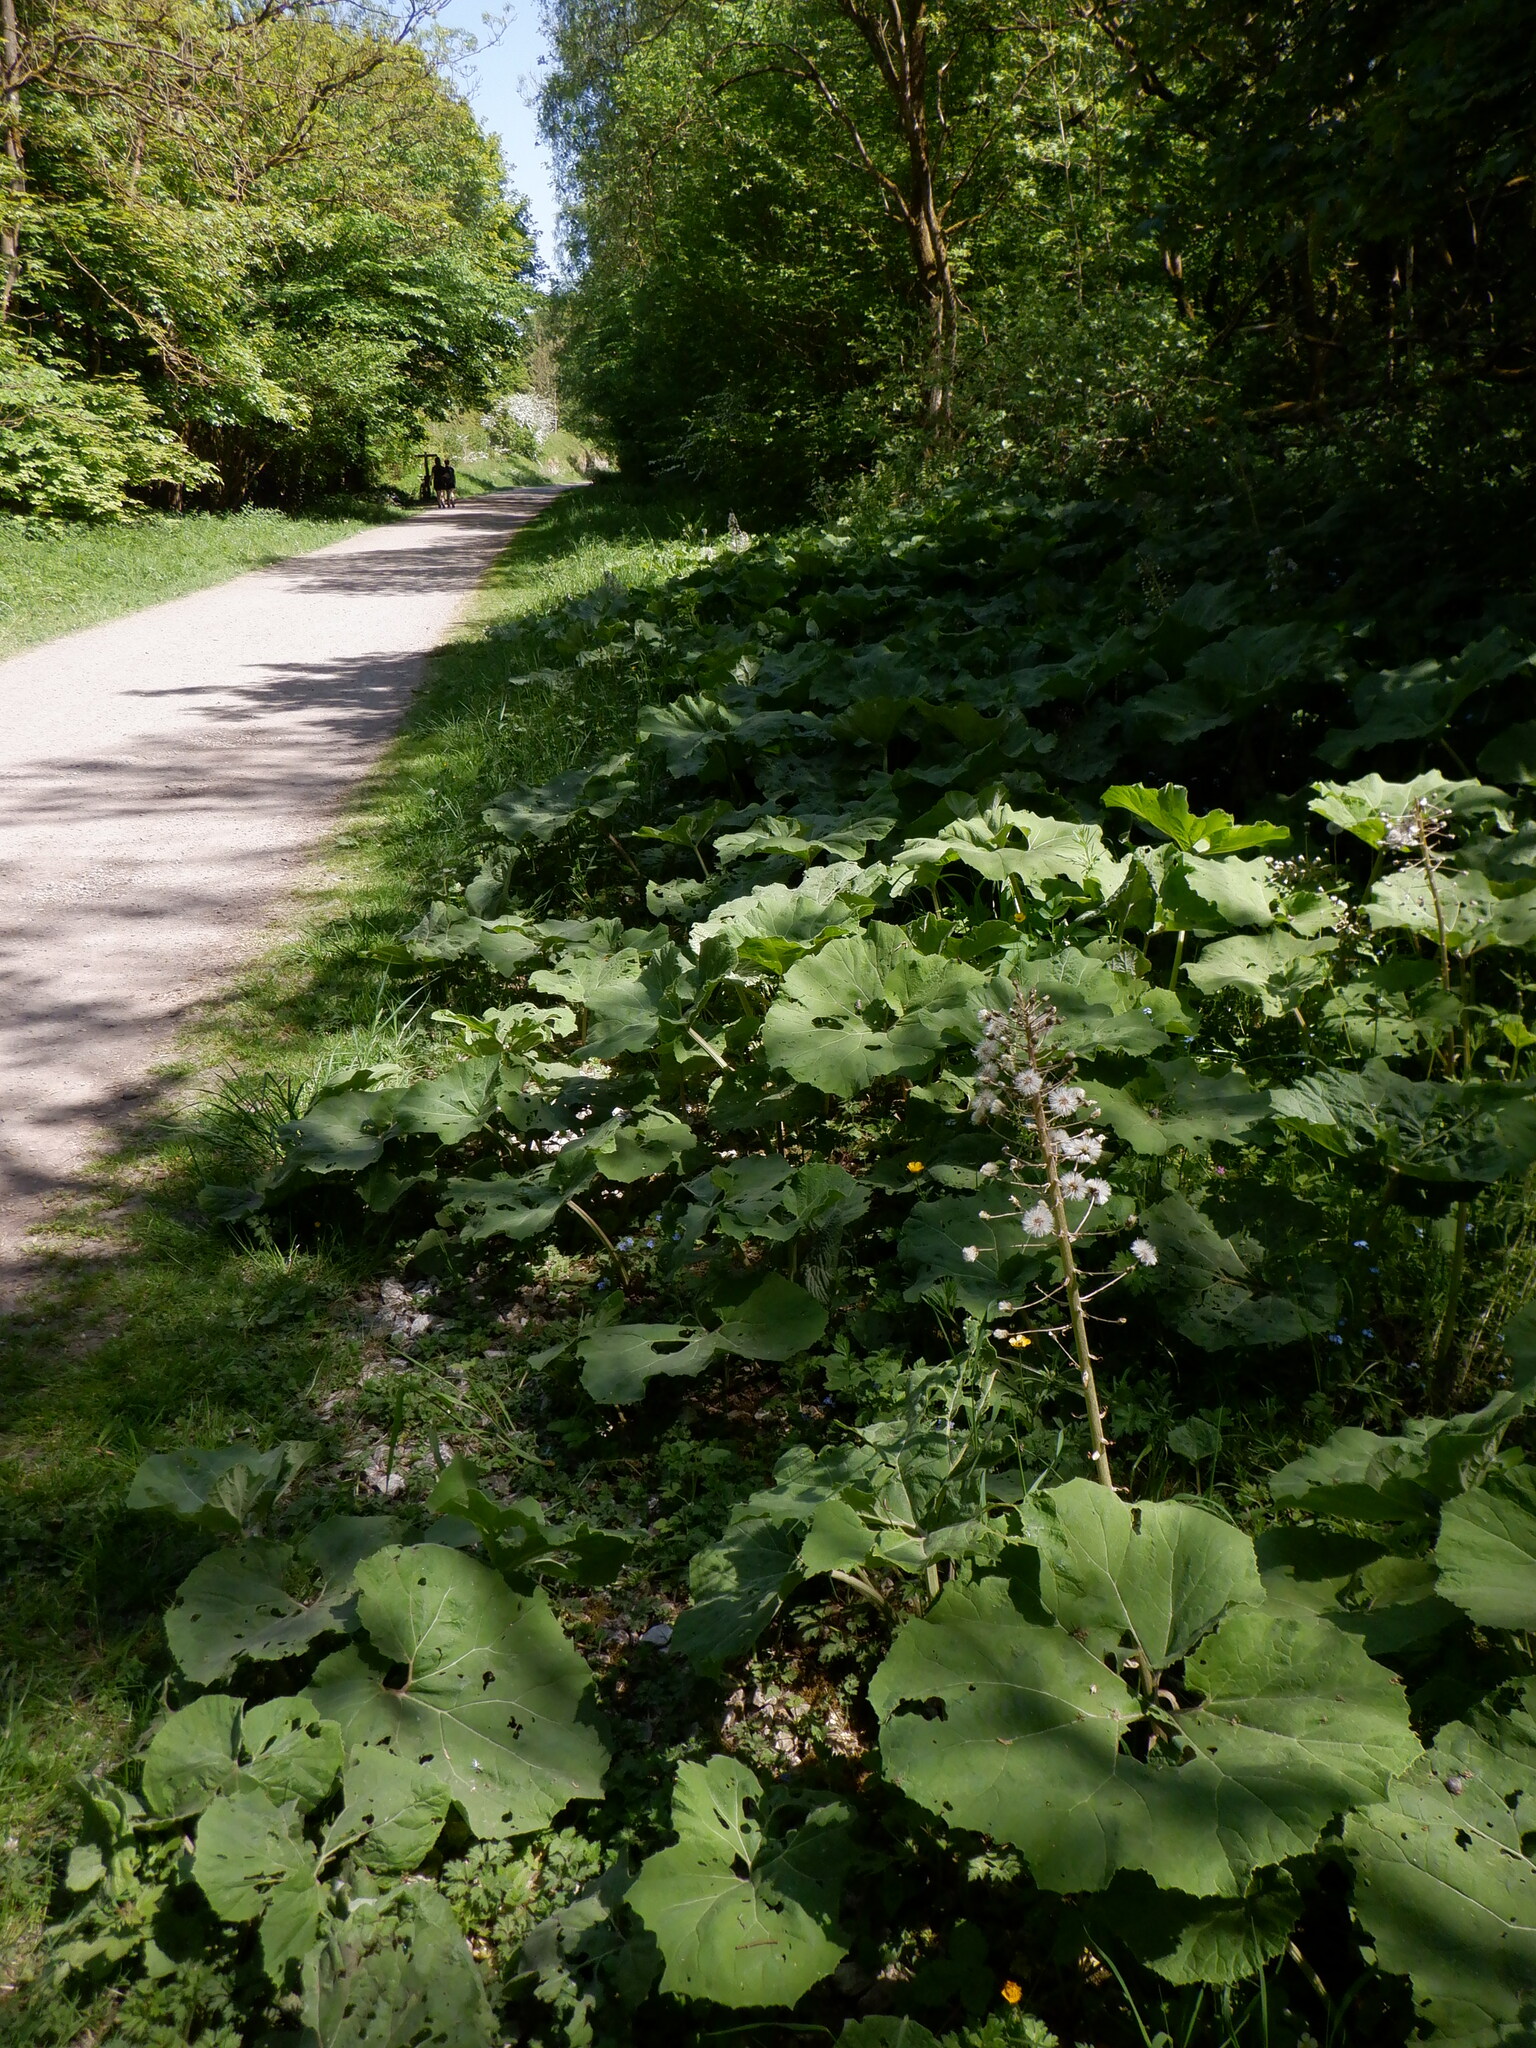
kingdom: Plantae
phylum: Tracheophyta
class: Magnoliopsida
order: Asterales
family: Asteraceae
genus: Petasites
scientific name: Petasites hybridus
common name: Butterbur
